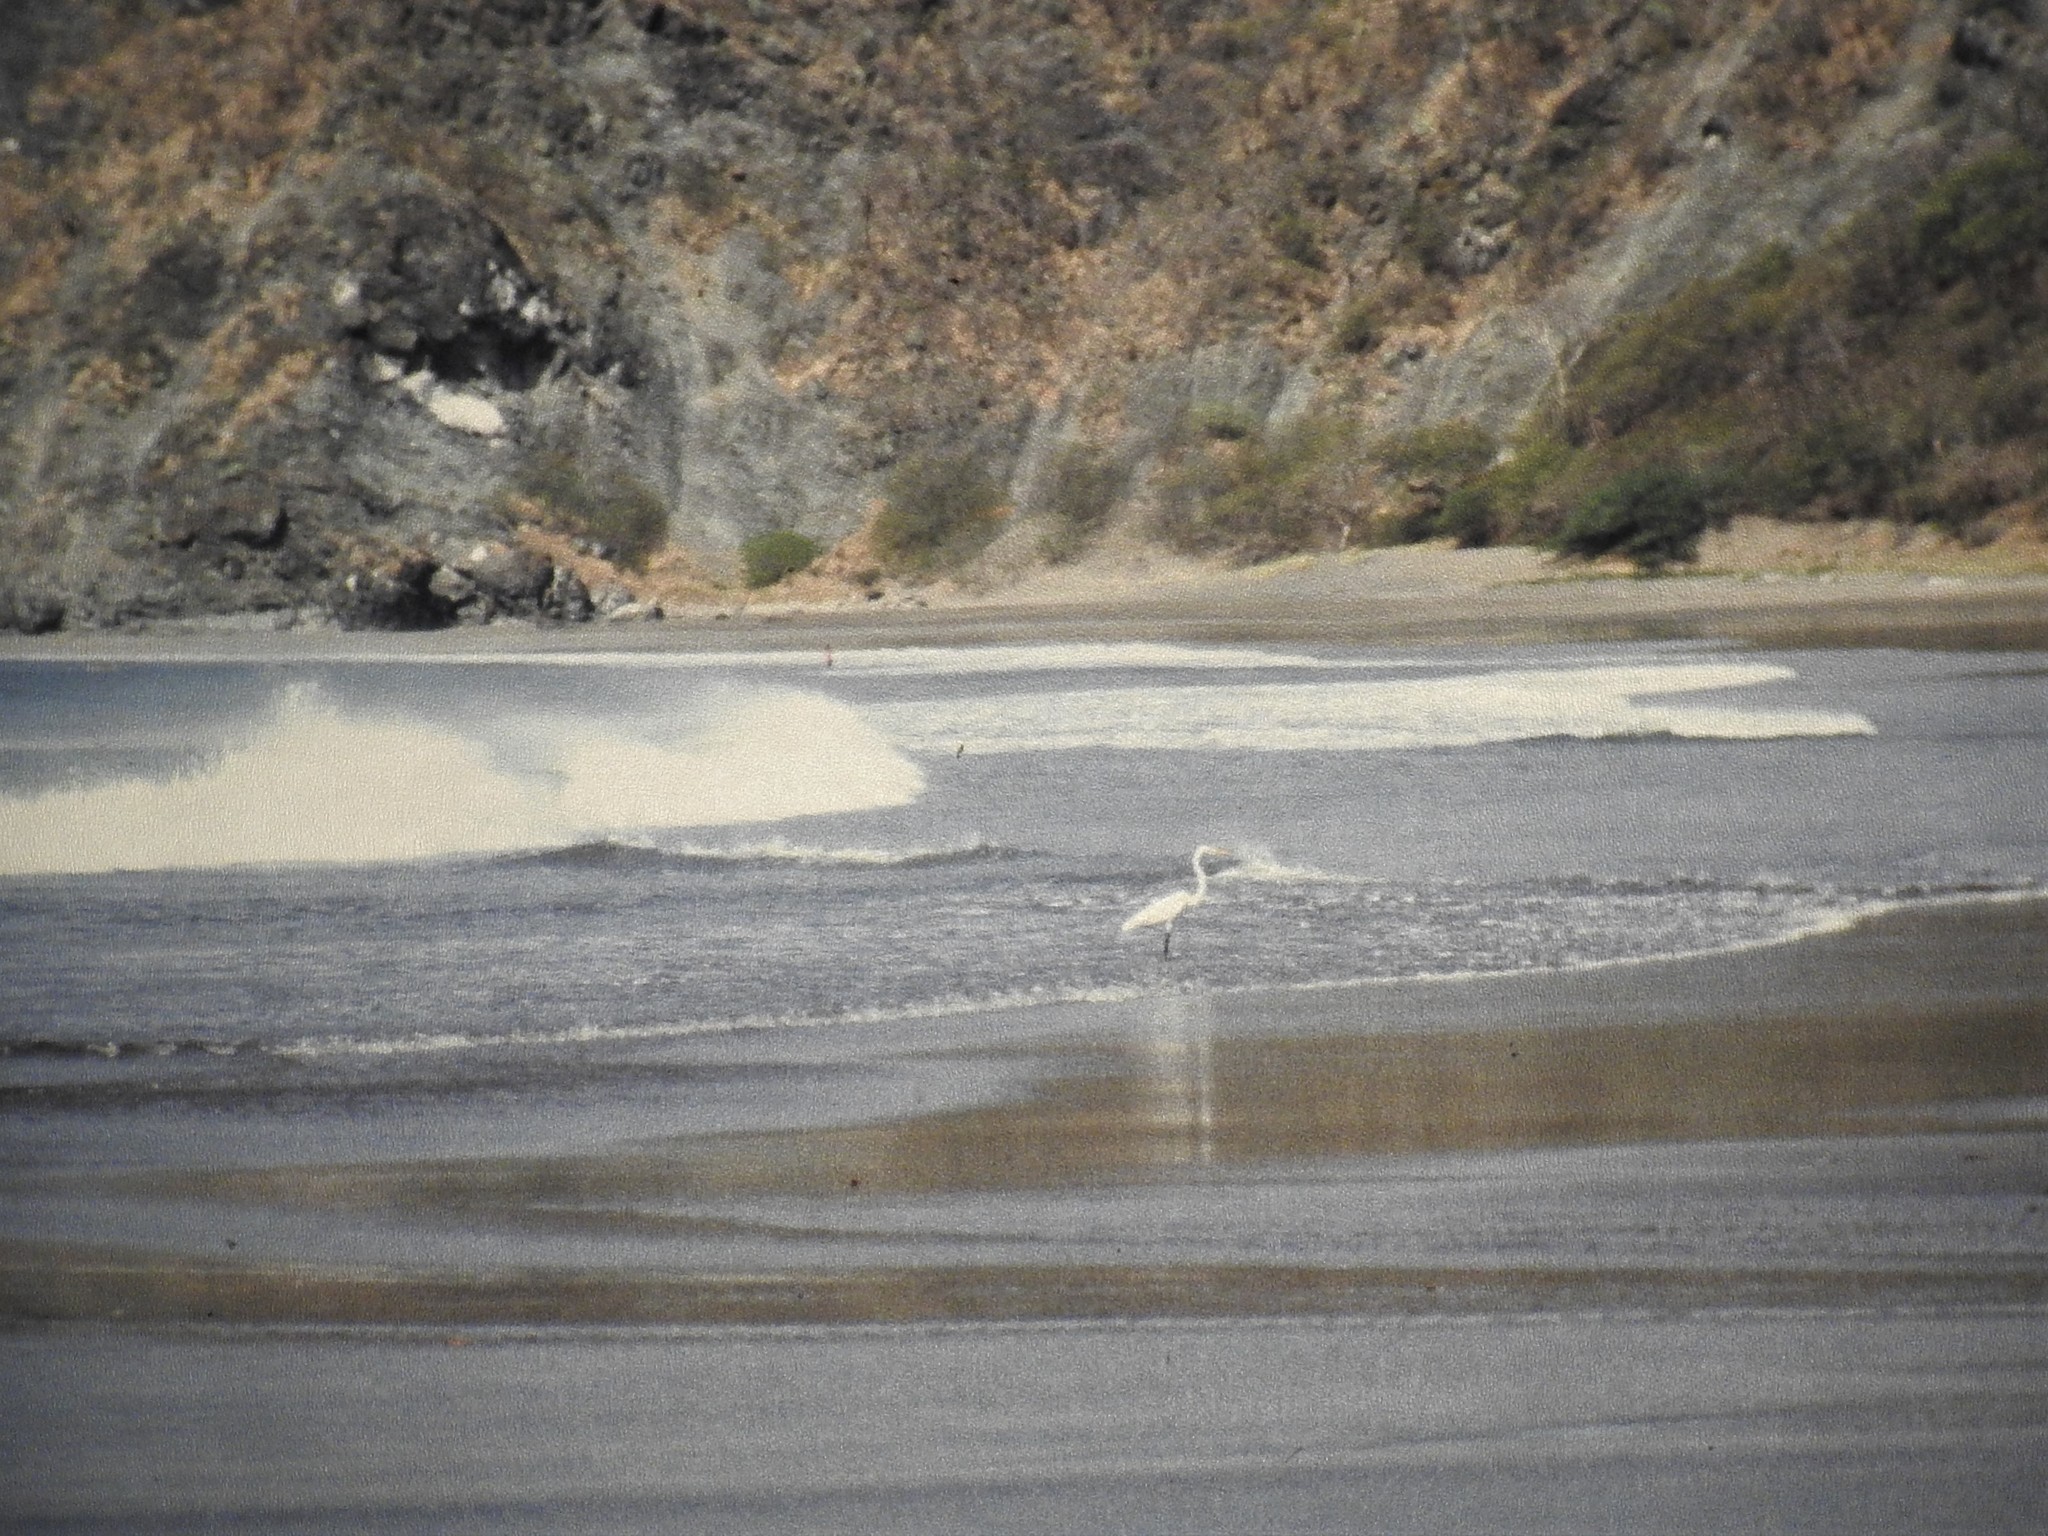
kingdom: Animalia
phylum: Chordata
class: Aves
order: Pelecaniformes
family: Ardeidae
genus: Ardea
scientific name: Ardea alba
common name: Great egret
